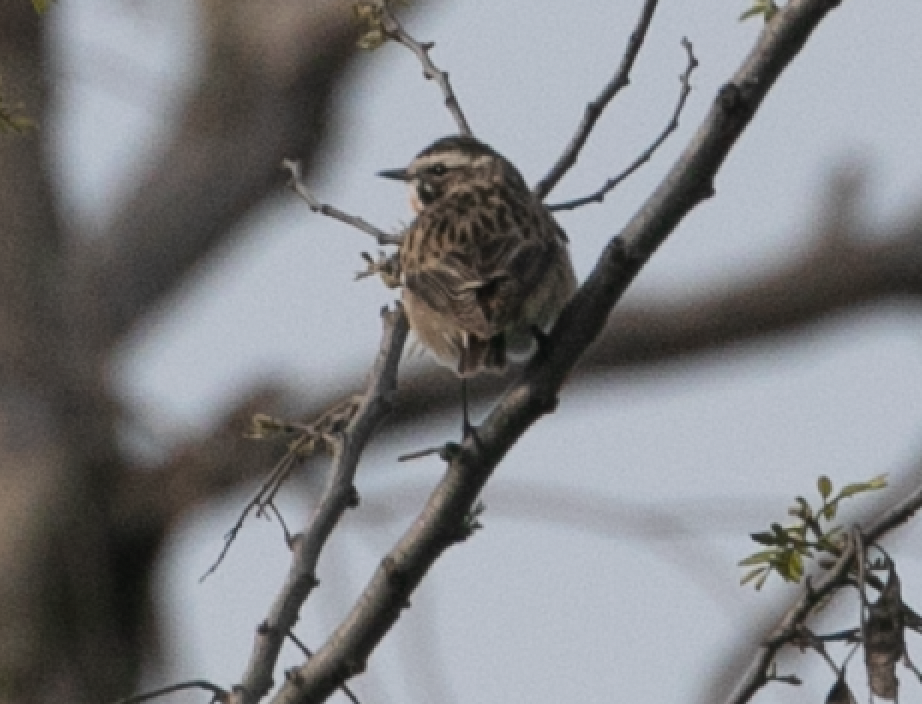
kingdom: Animalia
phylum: Chordata
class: Aves
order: Passeriformes
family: Muscicapidae
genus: Saxicola
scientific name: Saxicola rubetra
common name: Whinchat
